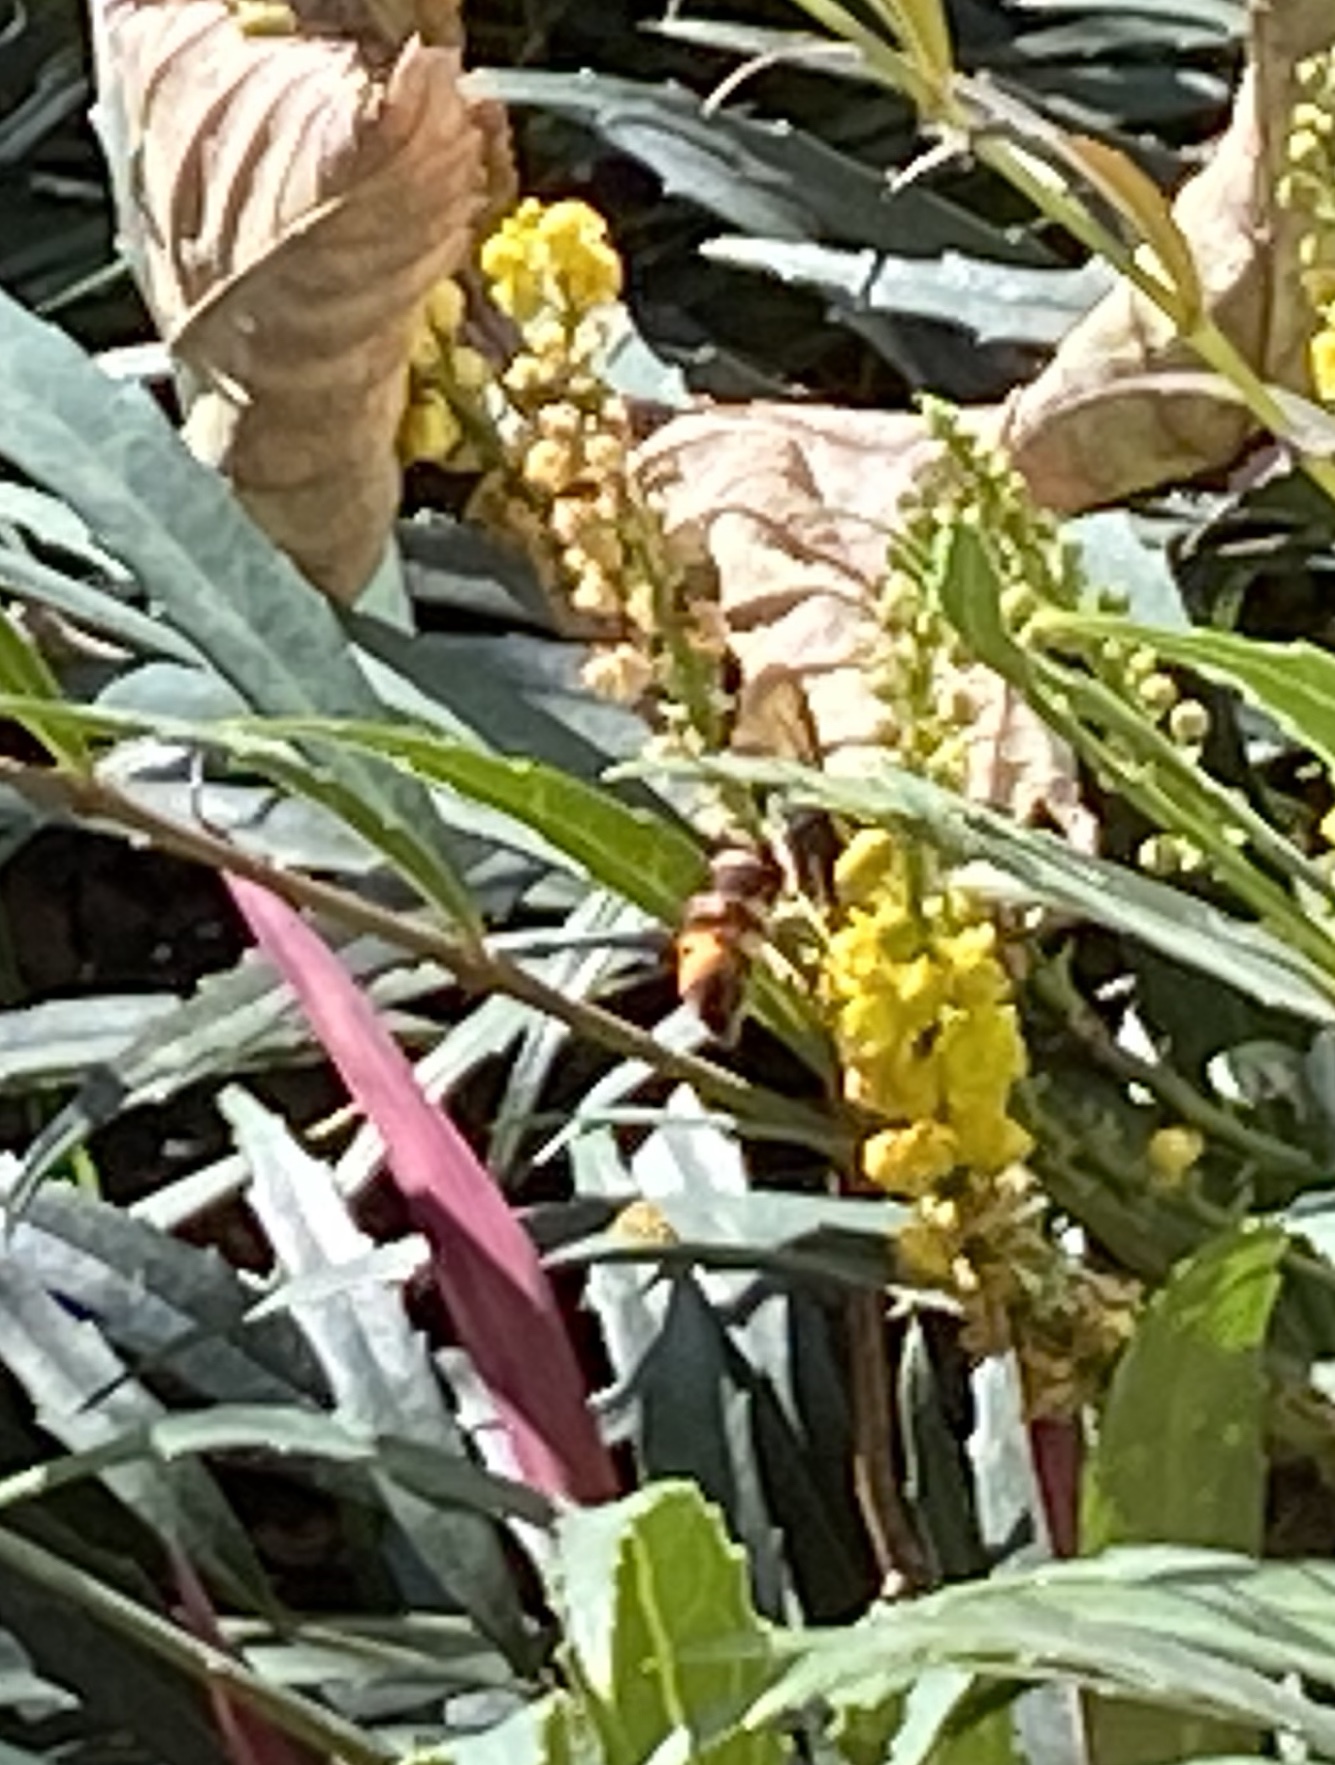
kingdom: Animalia
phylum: Arthropoda
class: Insecta
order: Hymenoptera
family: Vespidae
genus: Vespa
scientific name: Vespa velutina
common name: Asian hornet
